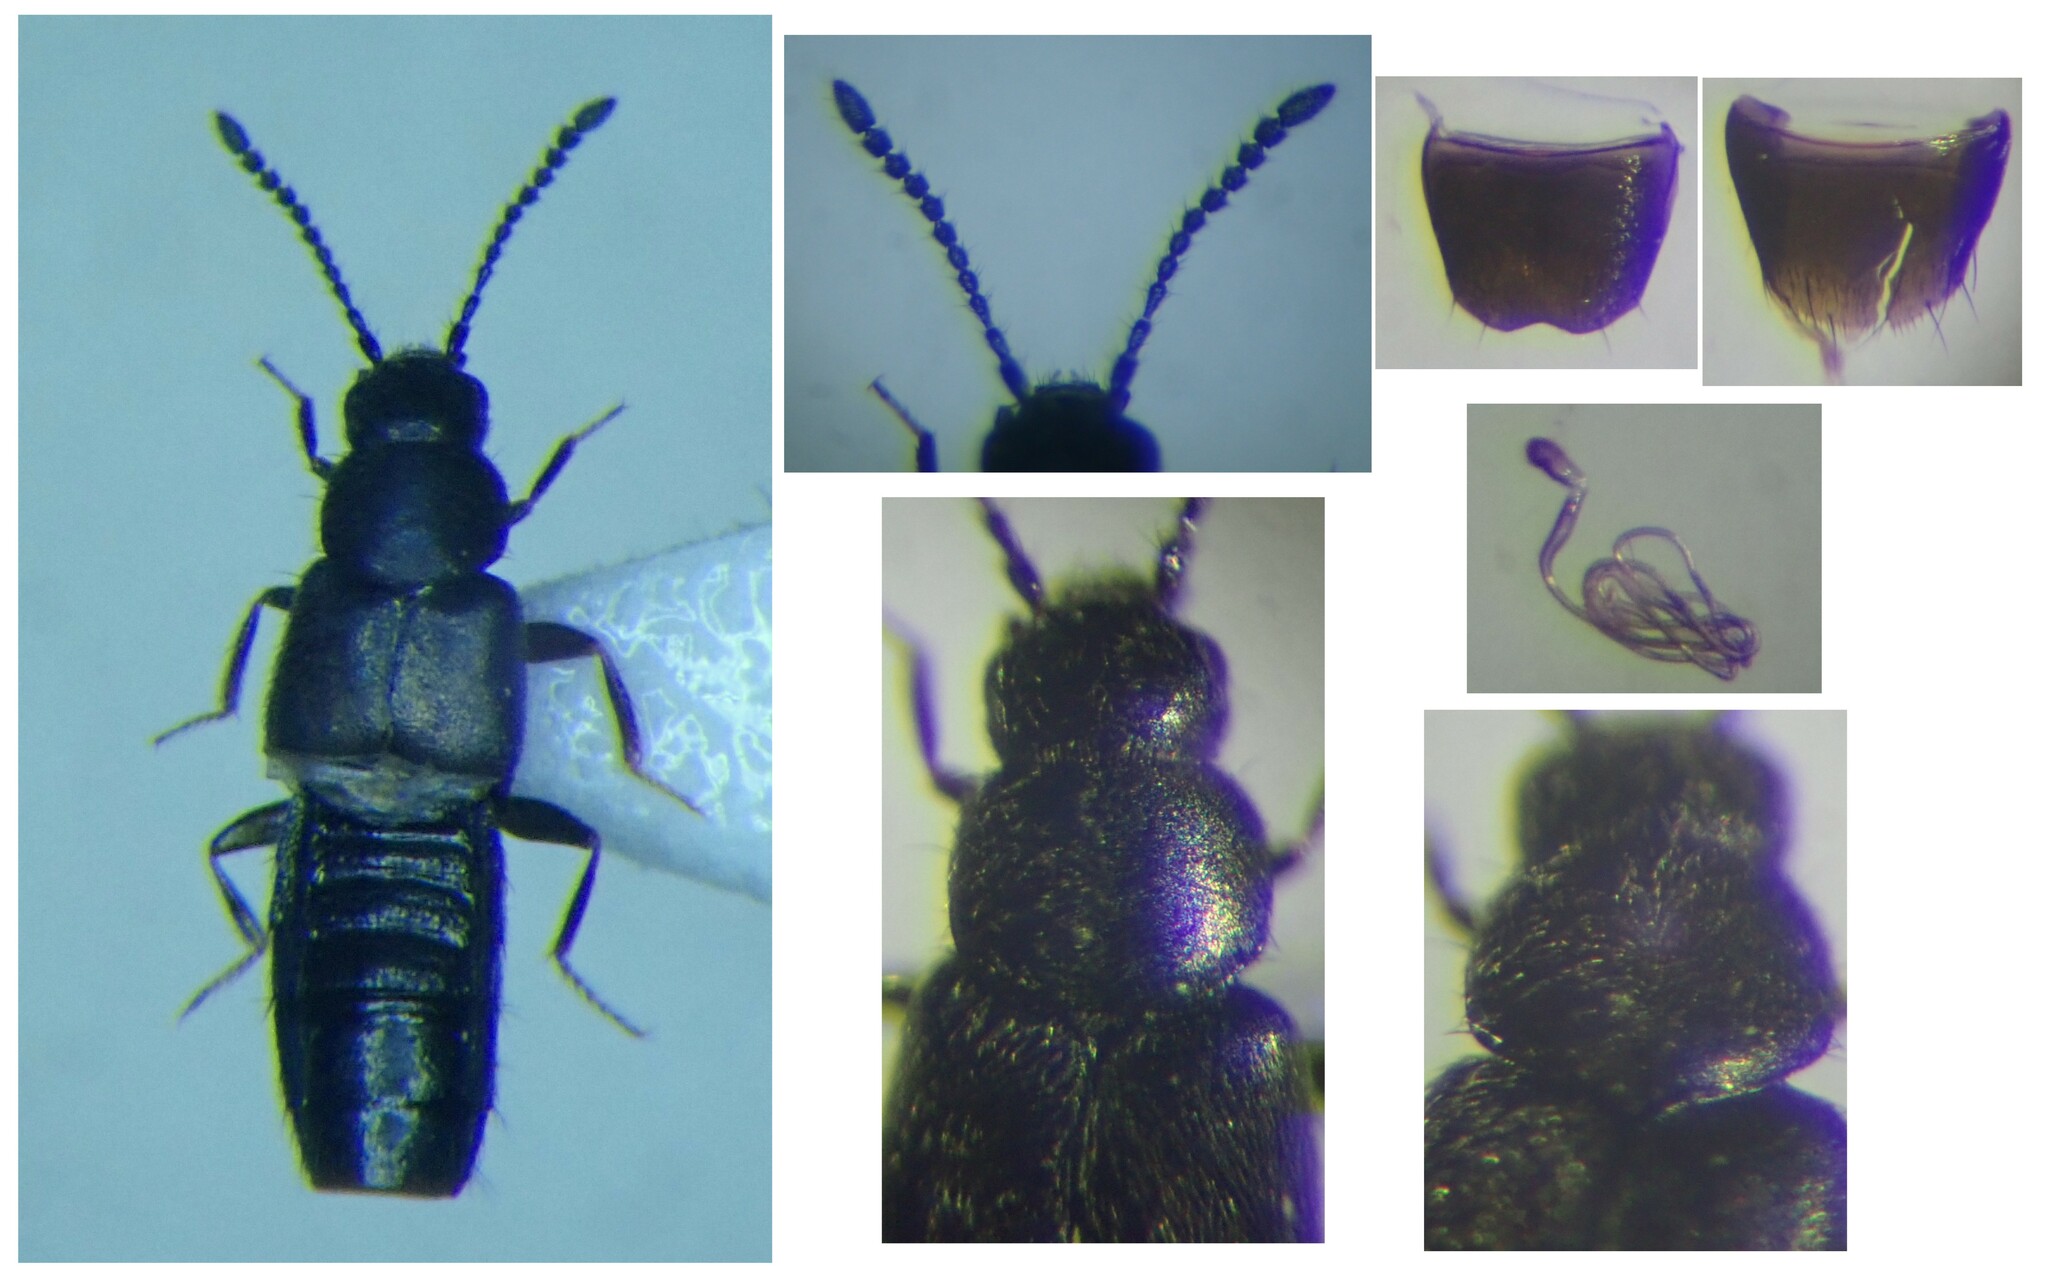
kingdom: Animalia
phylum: Arthropoda
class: Insecta
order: Coleoptera
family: Staphylinidae
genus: Atheta
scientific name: Atheta atramentaria
